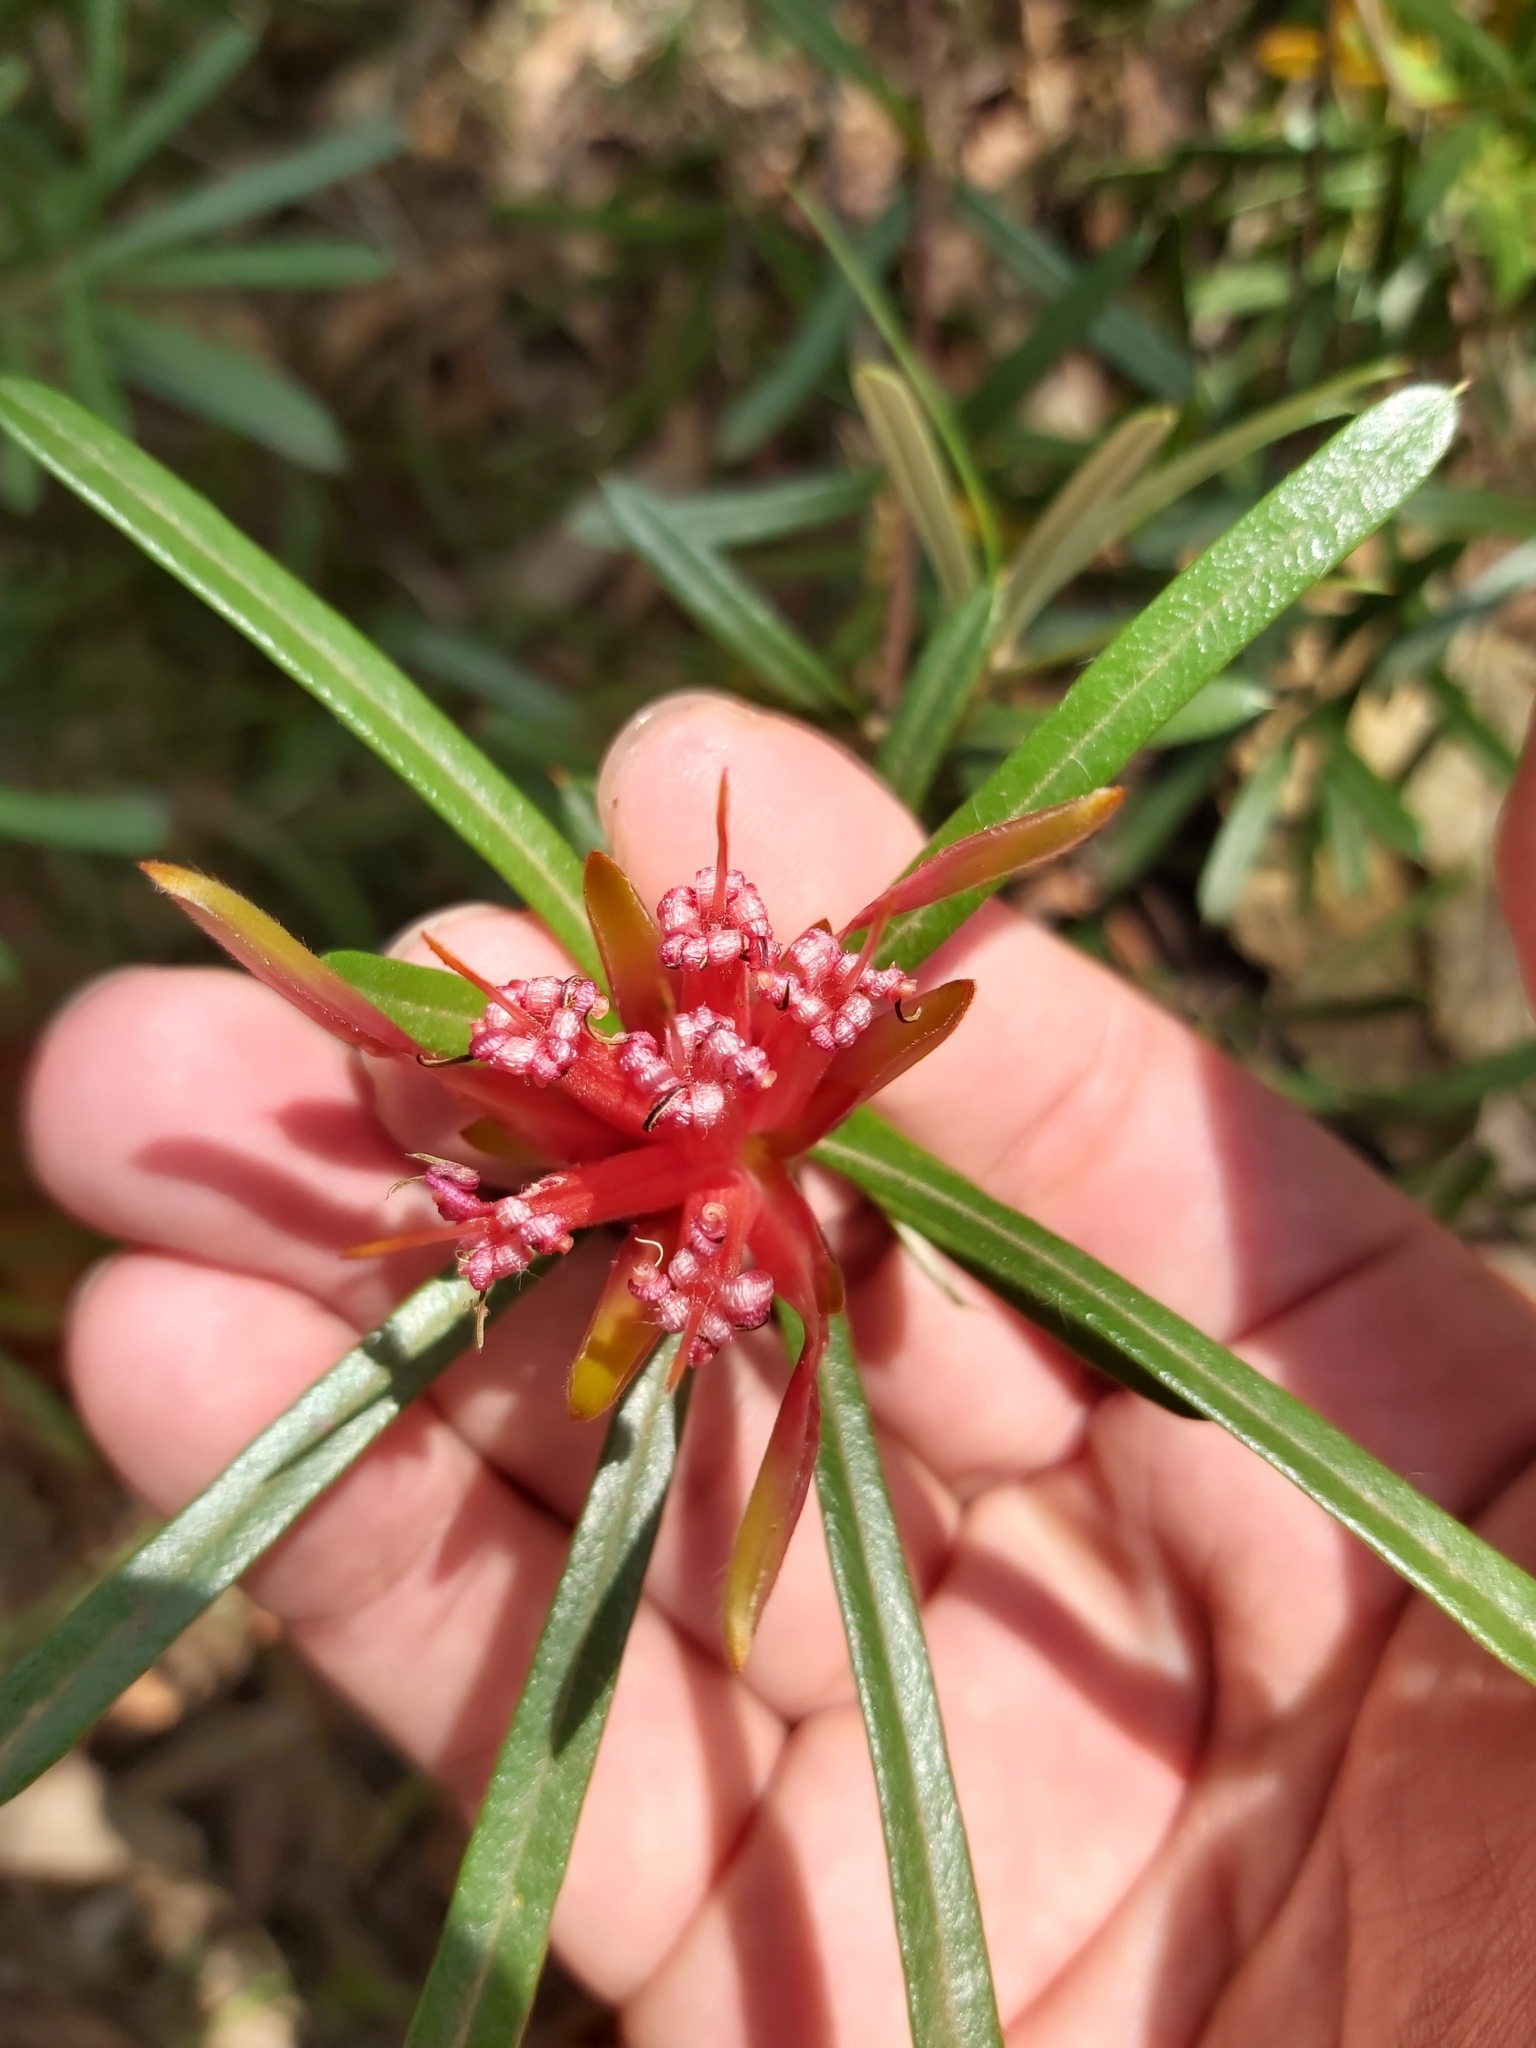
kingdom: Plantae
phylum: Tracheophyta
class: Magnoliopsida
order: Proteales
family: Proteaceae
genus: Lambertia
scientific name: Lambertia formosa
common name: Mountain-devil
